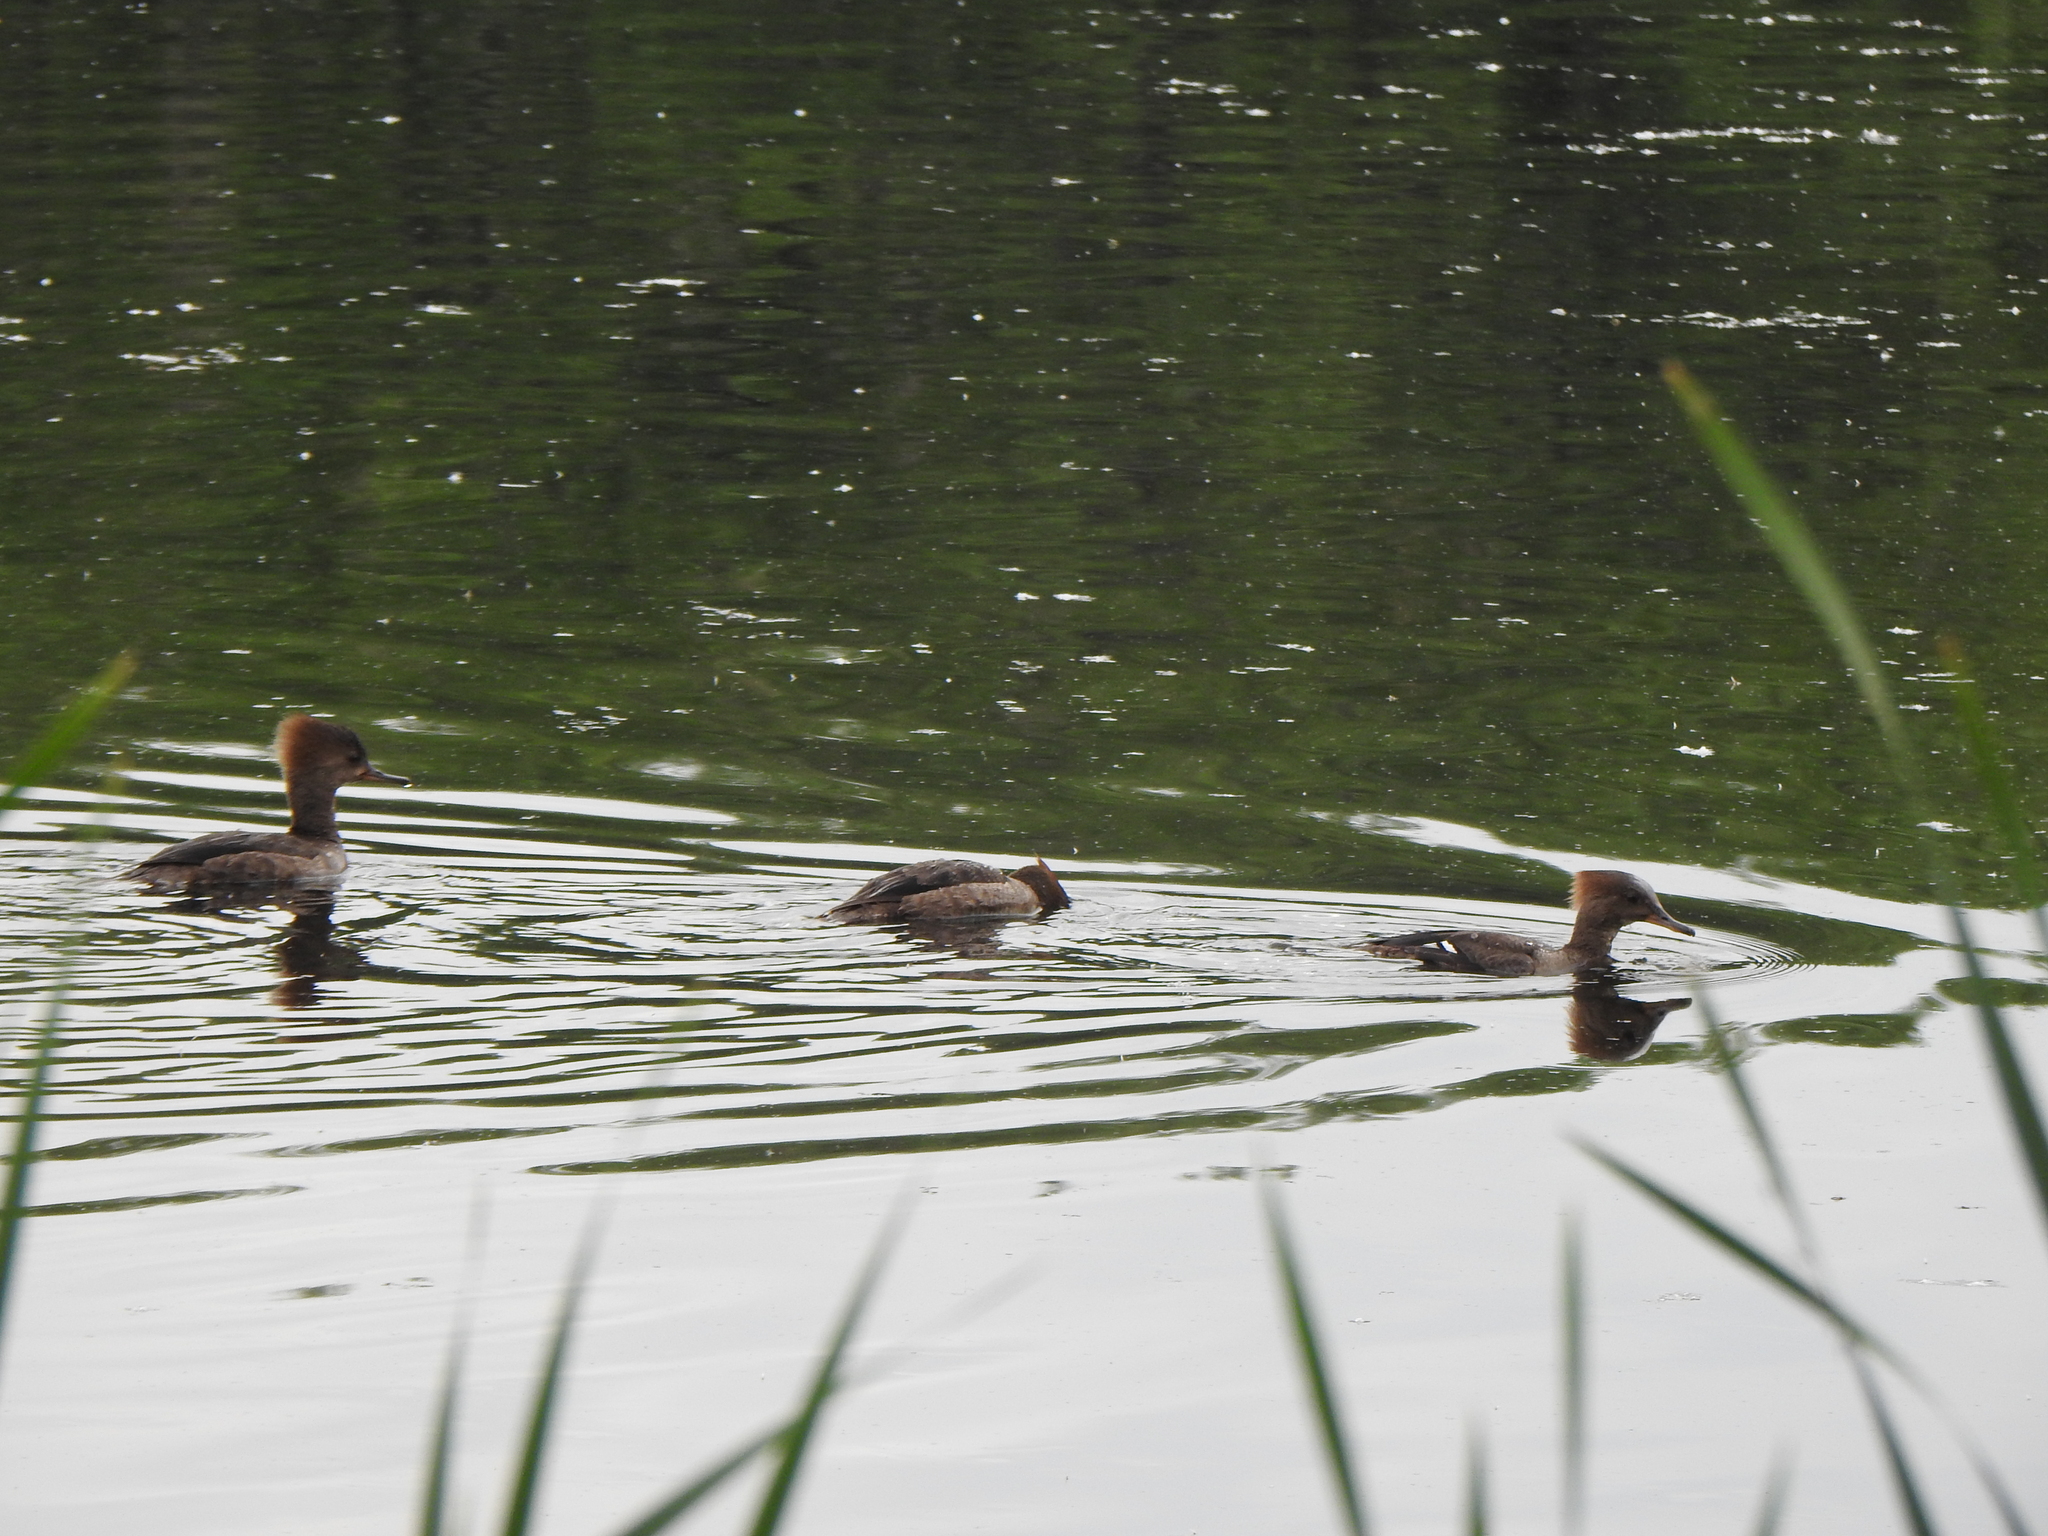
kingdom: Animalia
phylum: Chordata
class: Aves
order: Anseriformes
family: Anatidae
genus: Lophodytes
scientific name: Lophodytes cucullatus
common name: Hooded merganser
